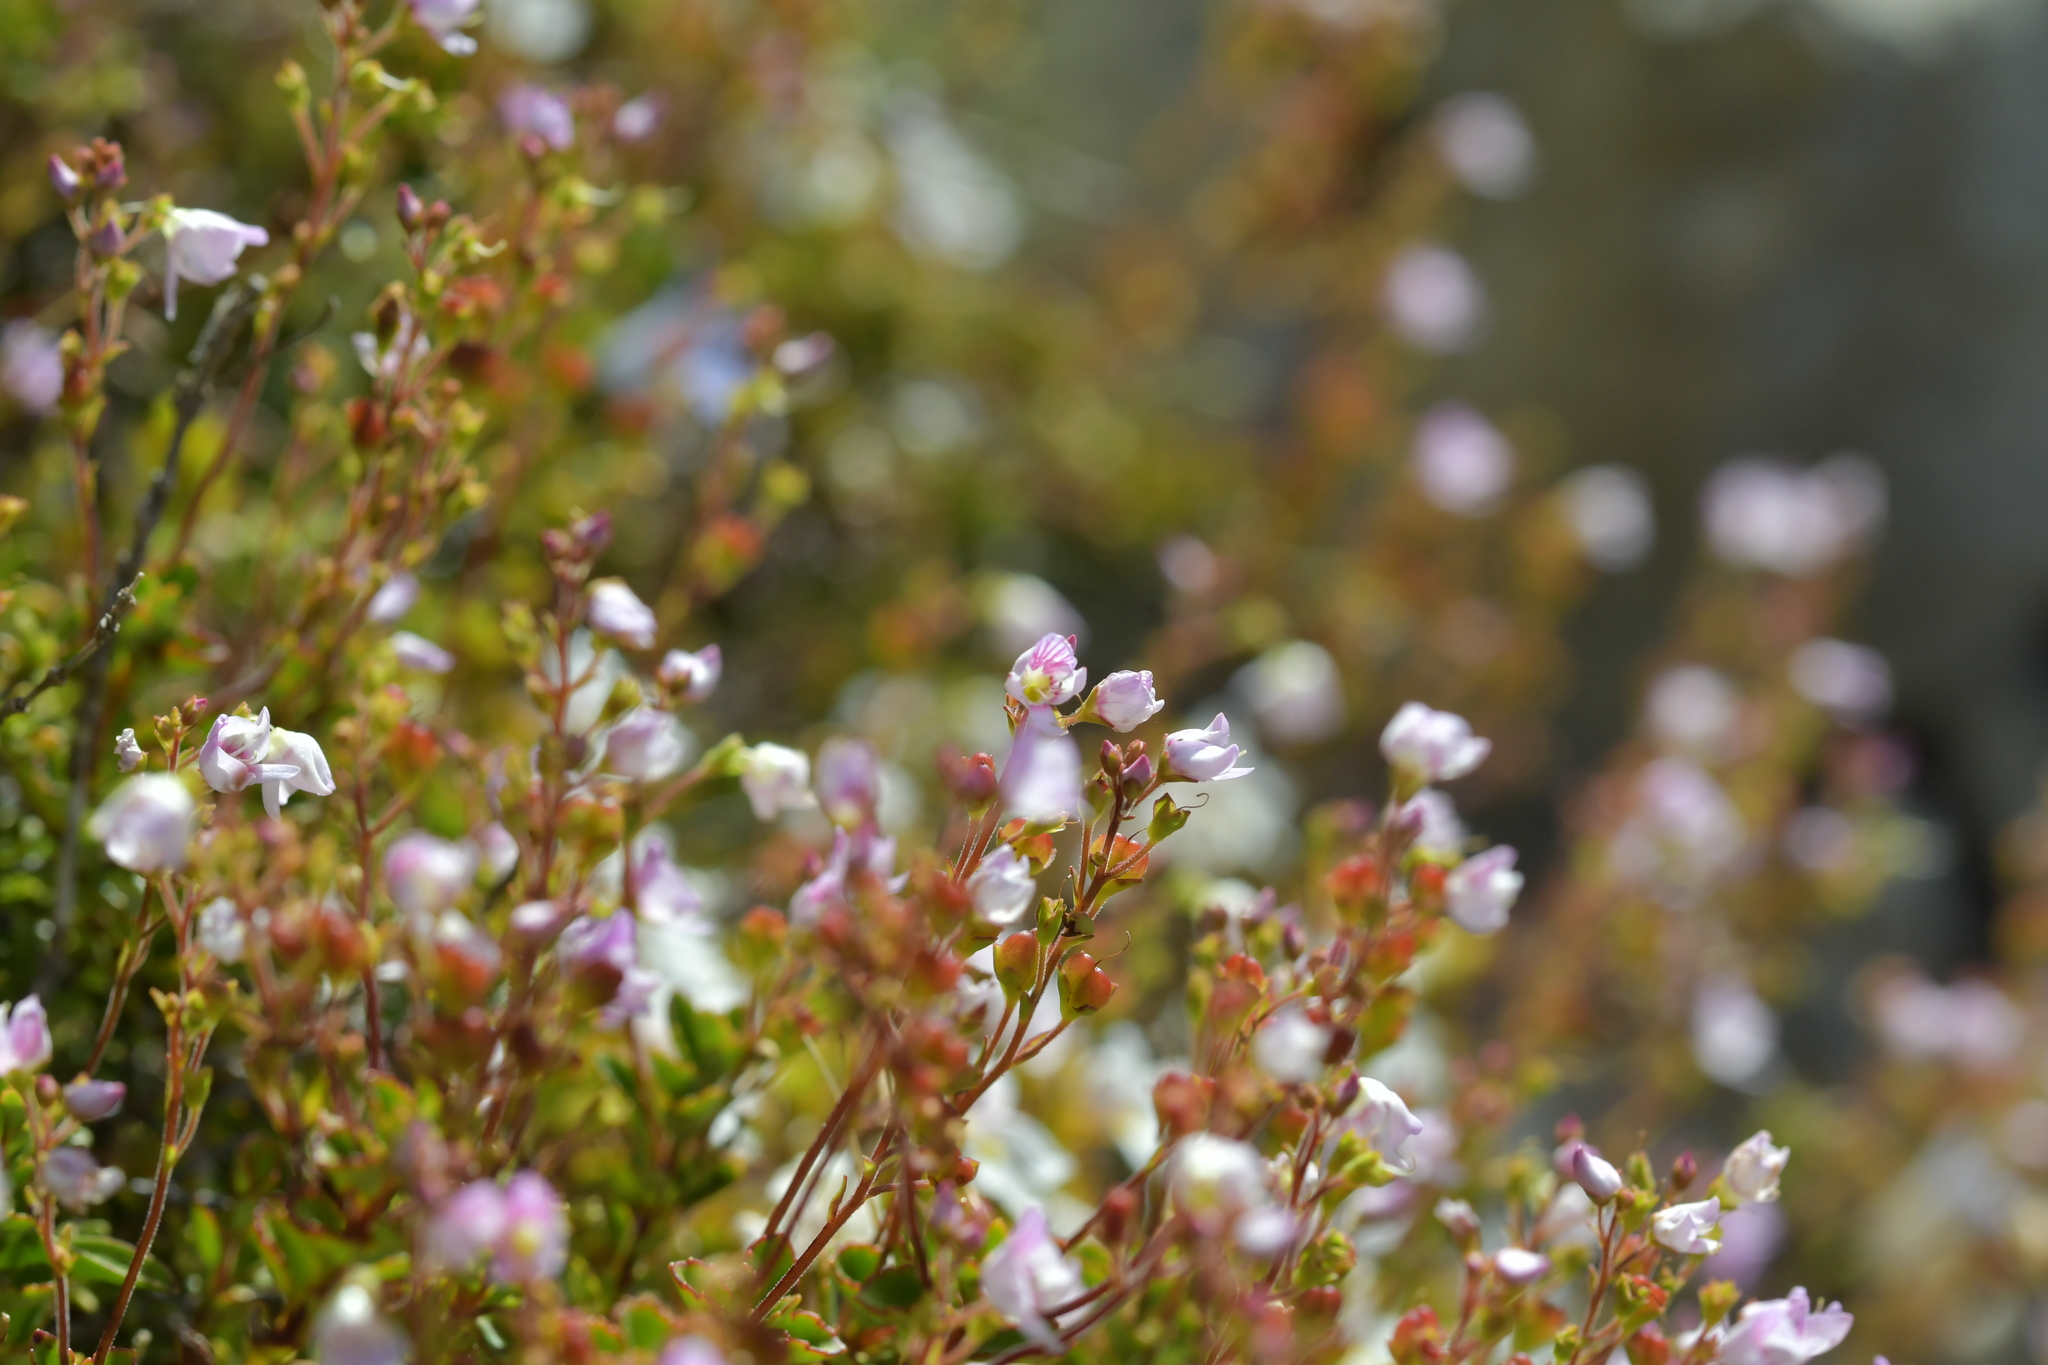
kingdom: Plantae
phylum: Tracheophyta
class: Magnoliopsida
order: Lamiales
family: Plantaginaceae
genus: Veronica
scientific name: Veronica hookeriana
